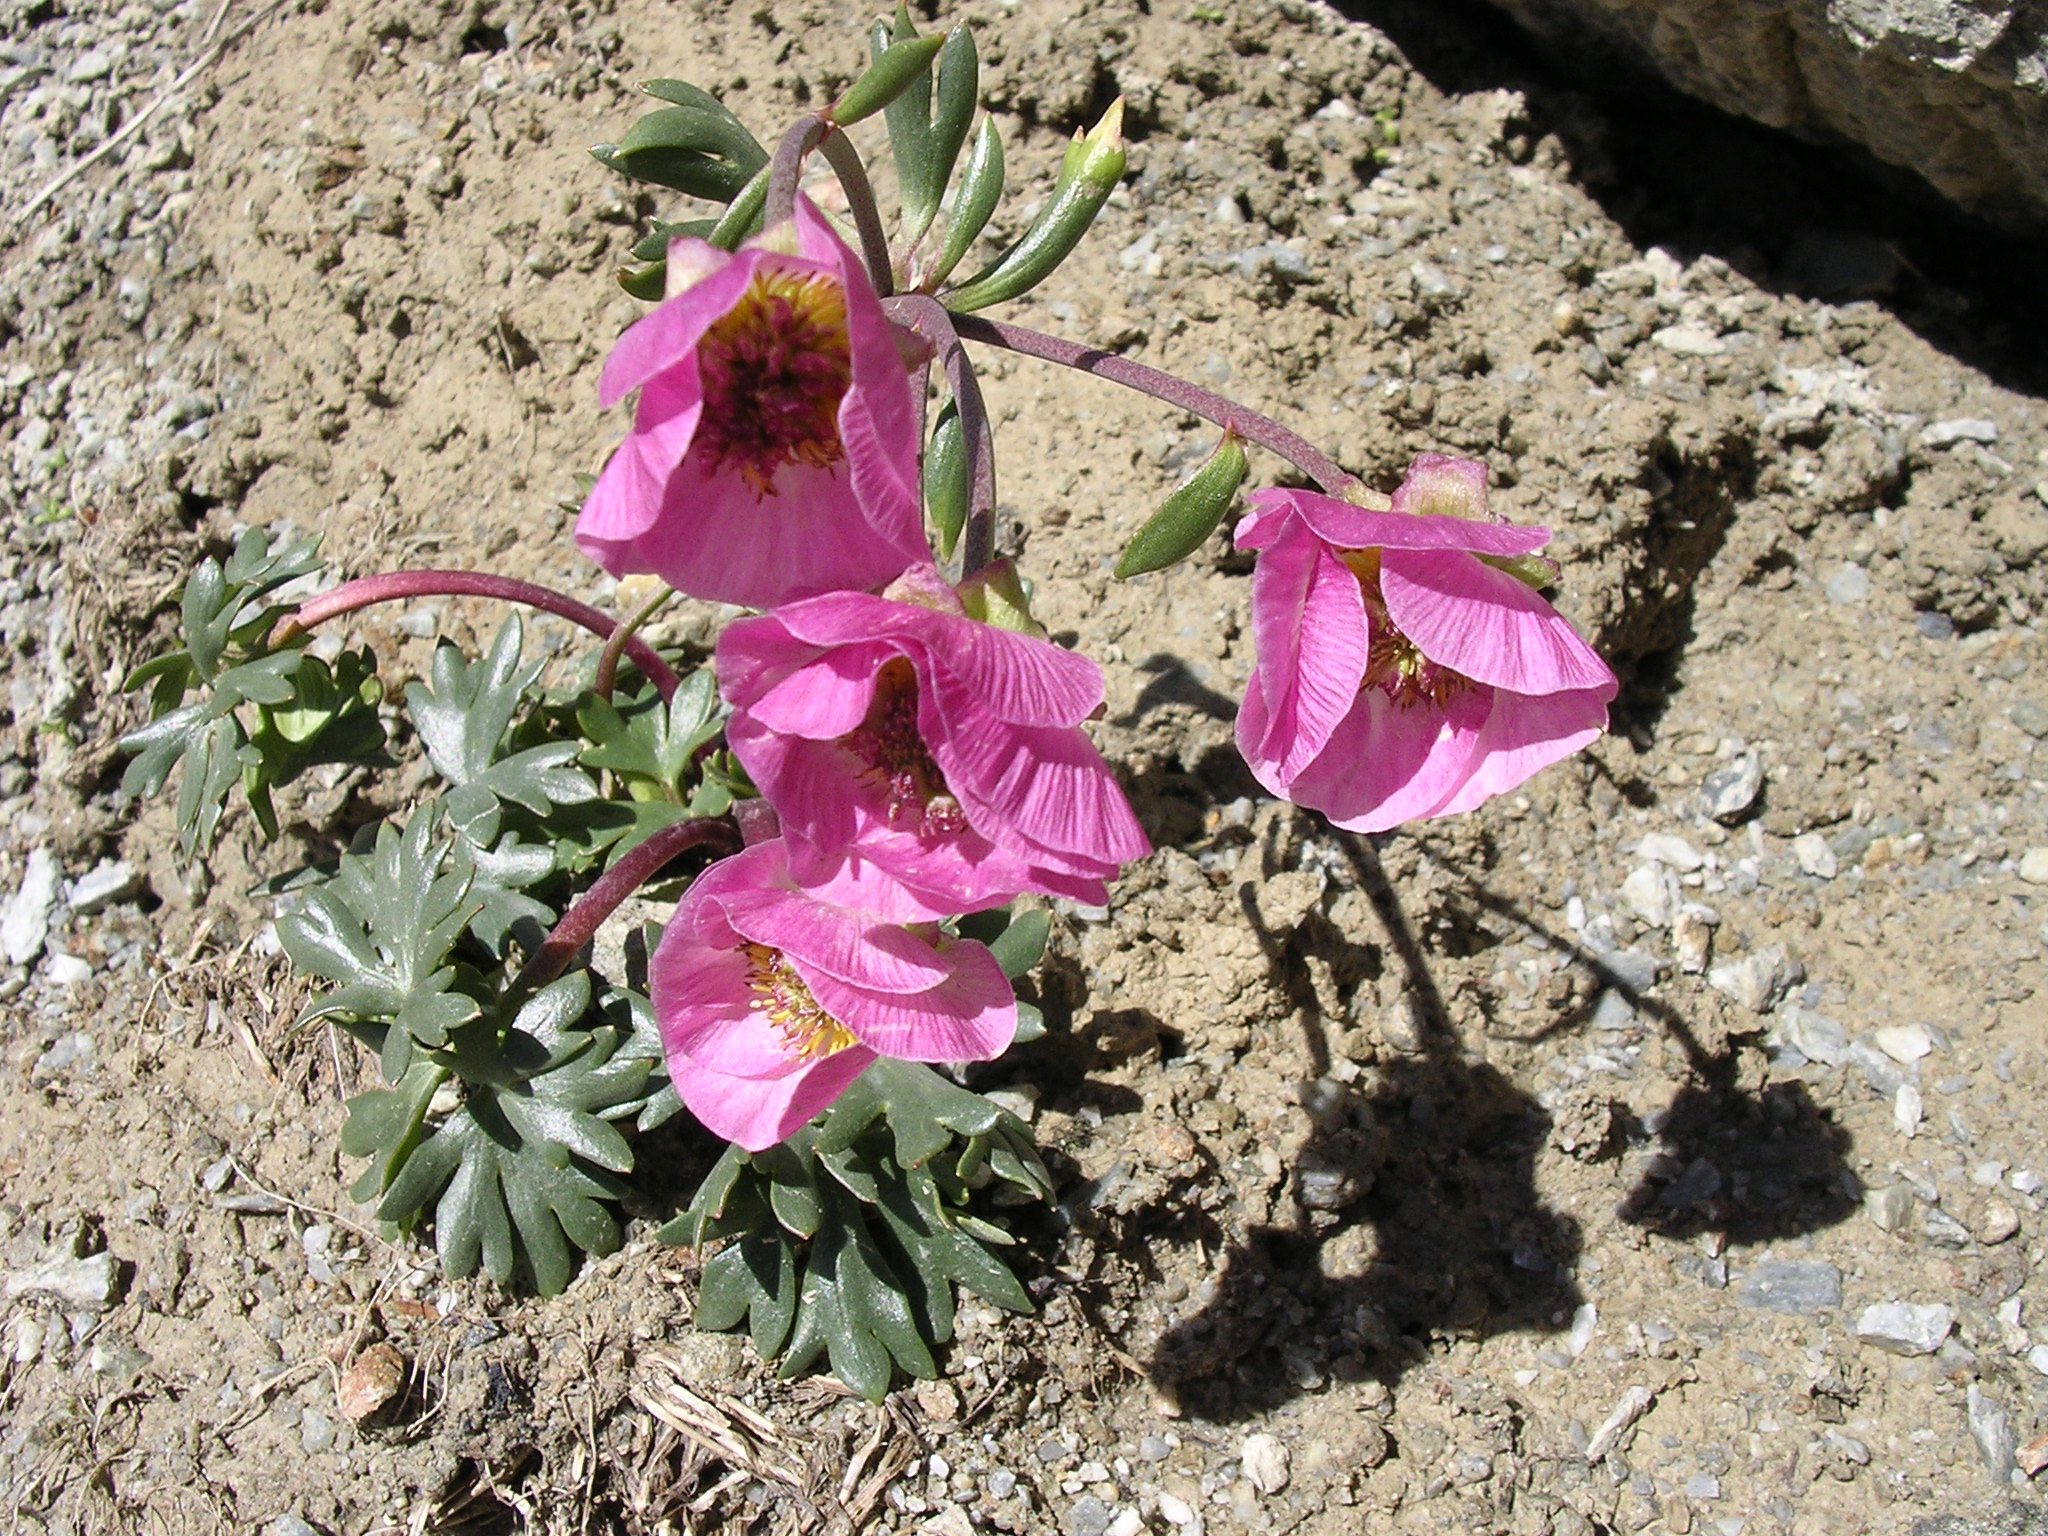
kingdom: Plantae
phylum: Tracheophyta
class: Magnoliopsida
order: Ranunculales
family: Ranunculaceae
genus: Ranunculus
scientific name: Ranunculus glacialis
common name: Glacier buttercup
